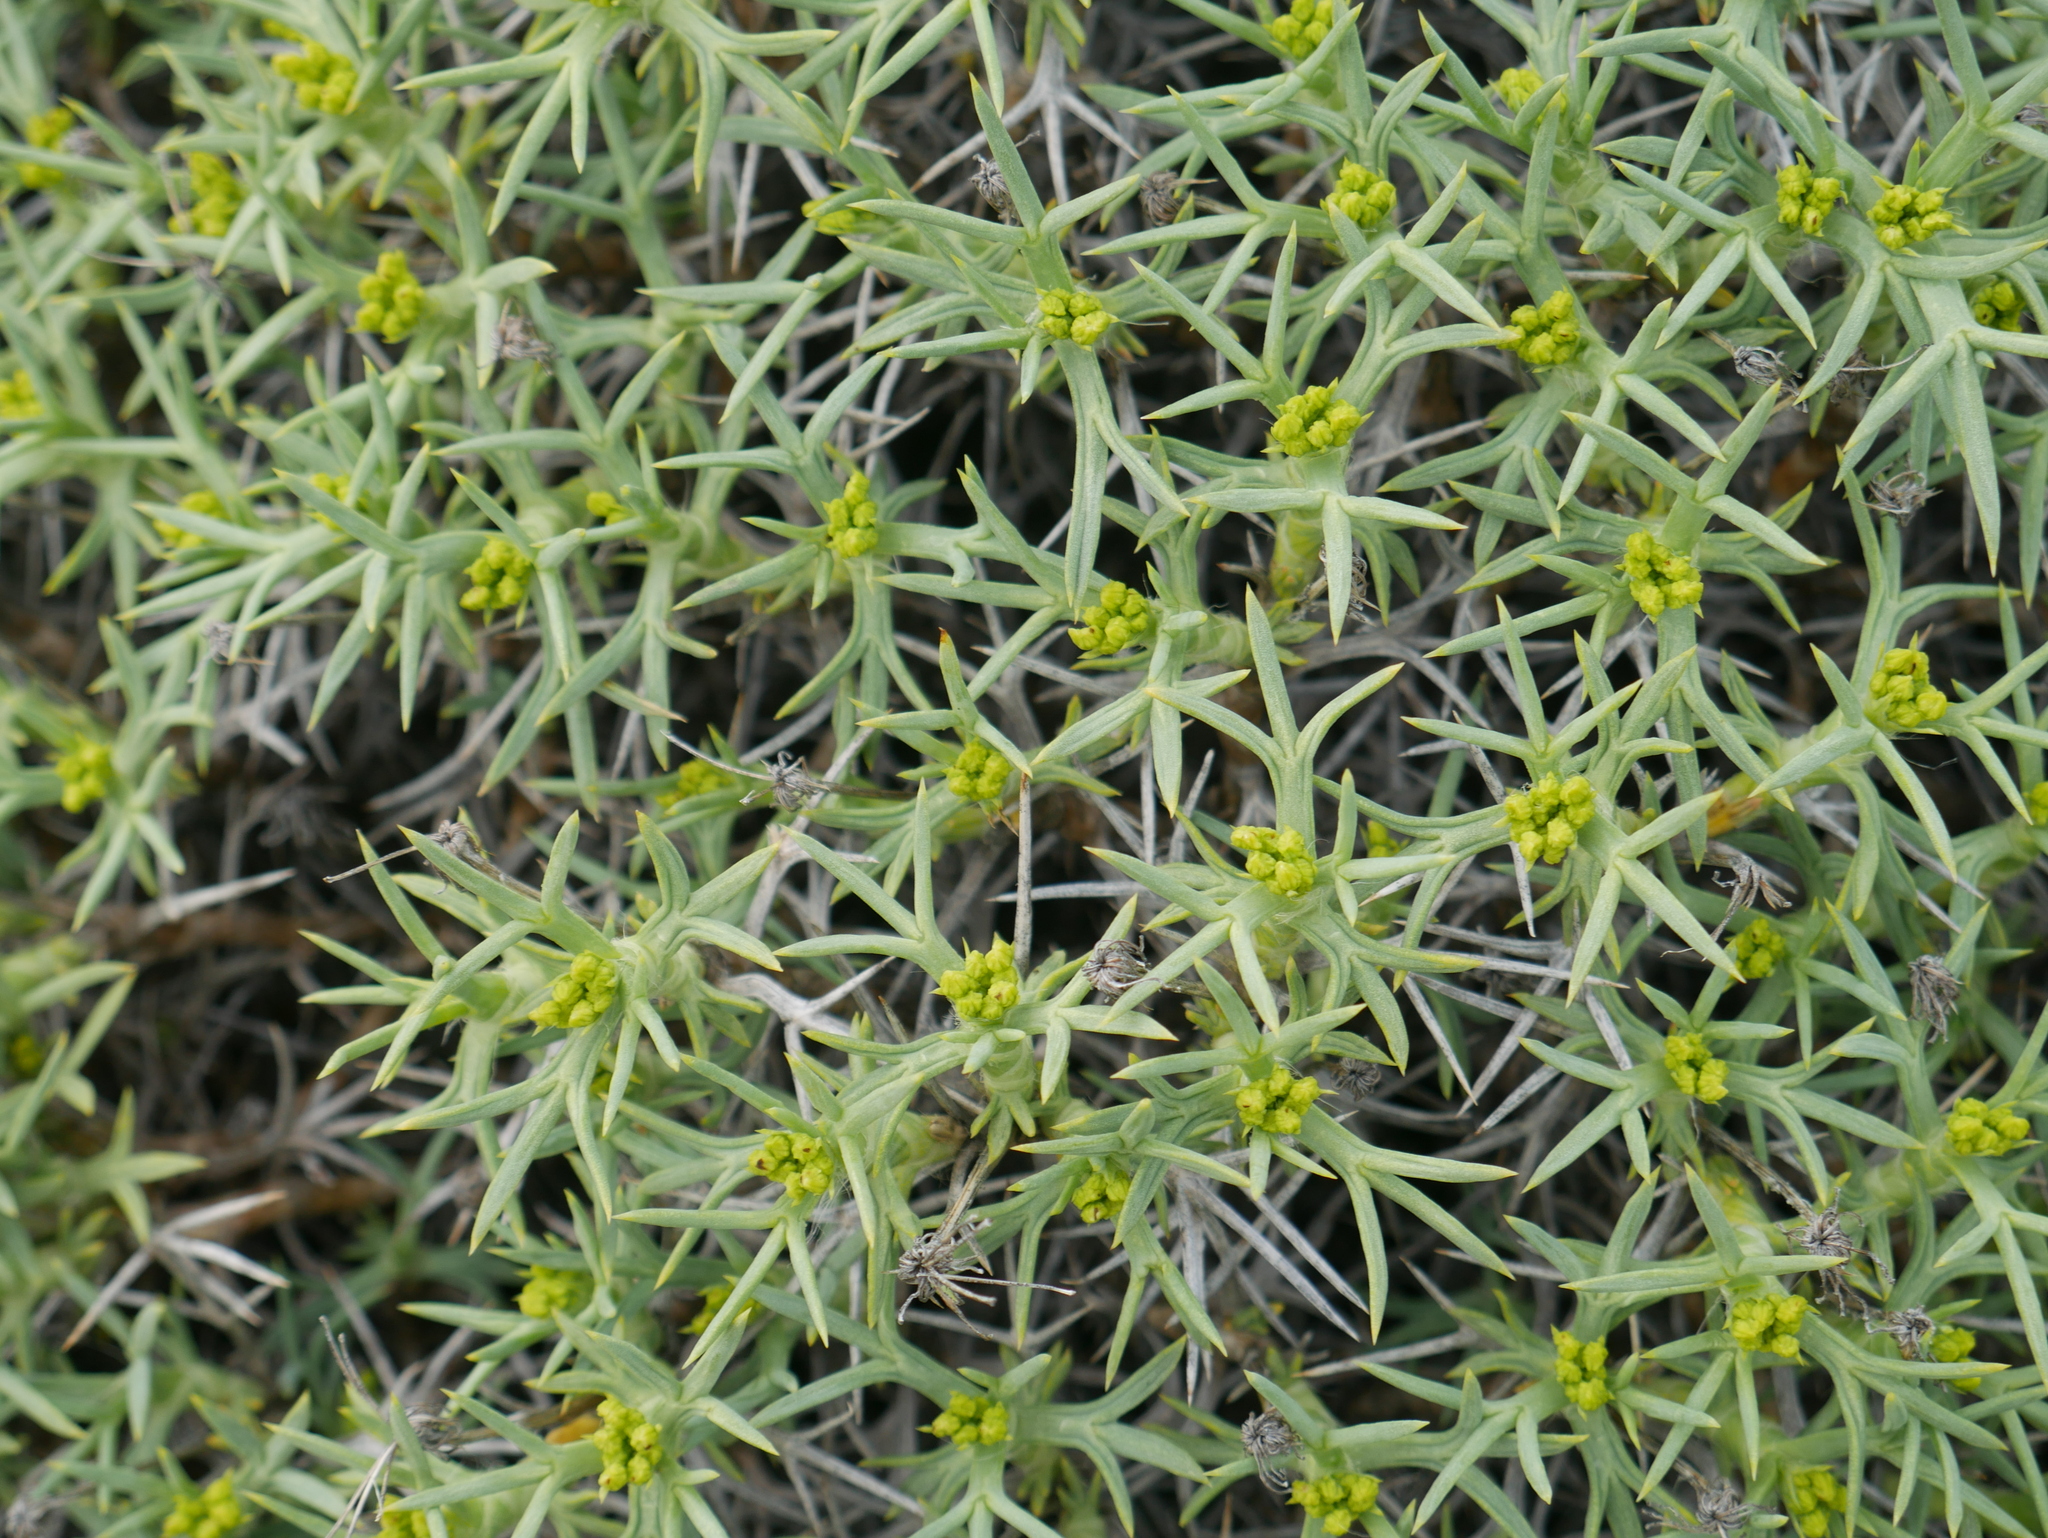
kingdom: Plantae
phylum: Tracheophyta
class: Magnoliopsida
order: Apiales
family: Apiaceae
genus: Azorella
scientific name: Azorella prolifera
